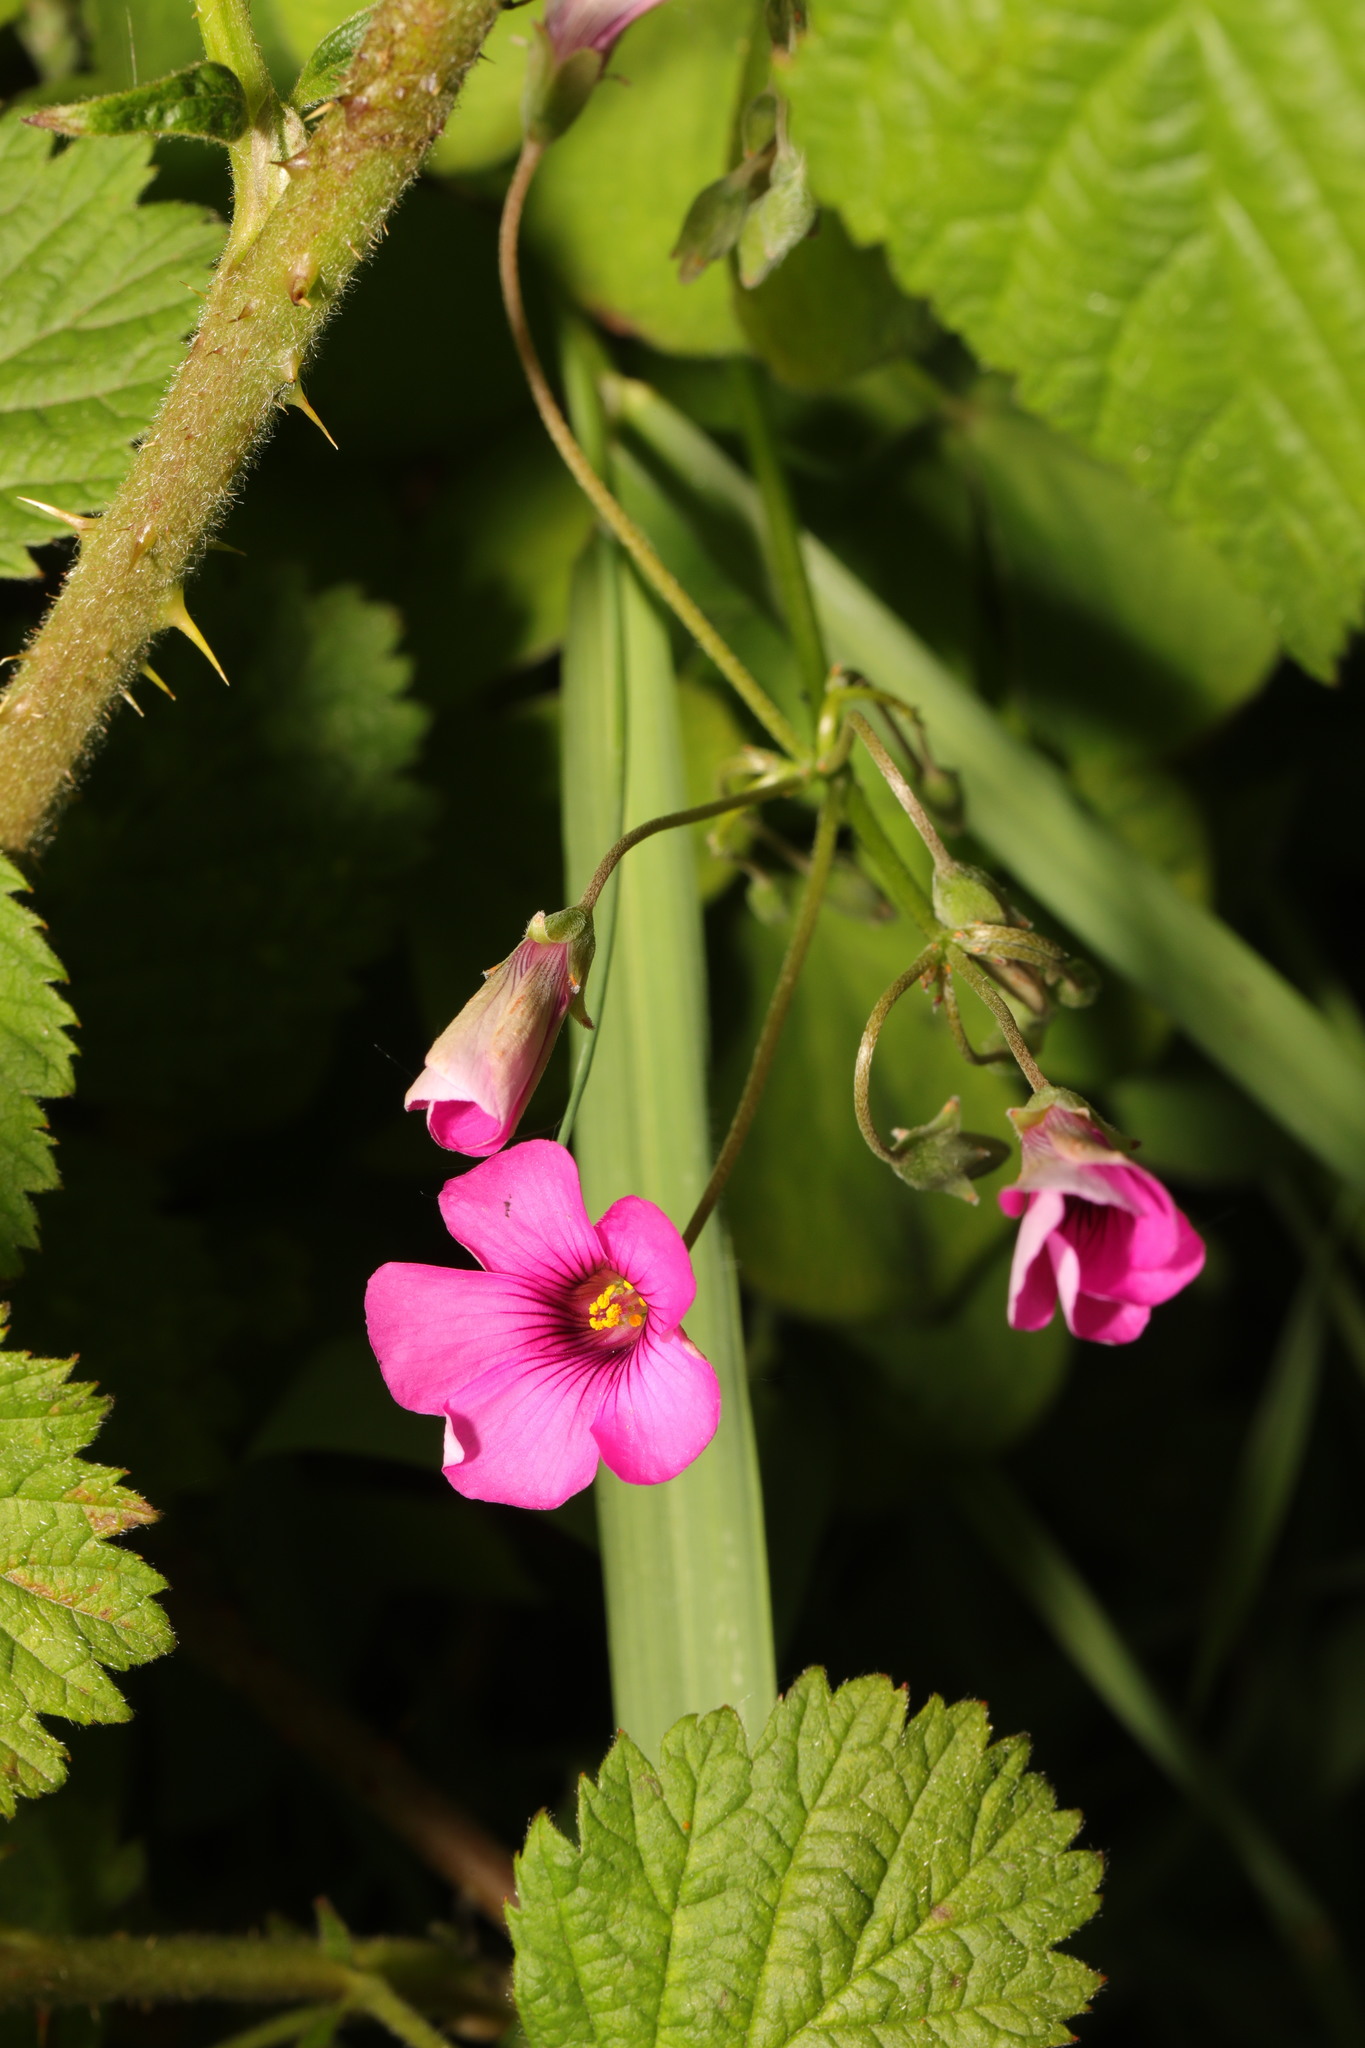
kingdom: Plantae
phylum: Tracheophyta
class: Magnoliopsida
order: Oxalidales
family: Oxalidaceae
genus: Oxalis
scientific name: Oxalis articulata
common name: Pink-sorrel
